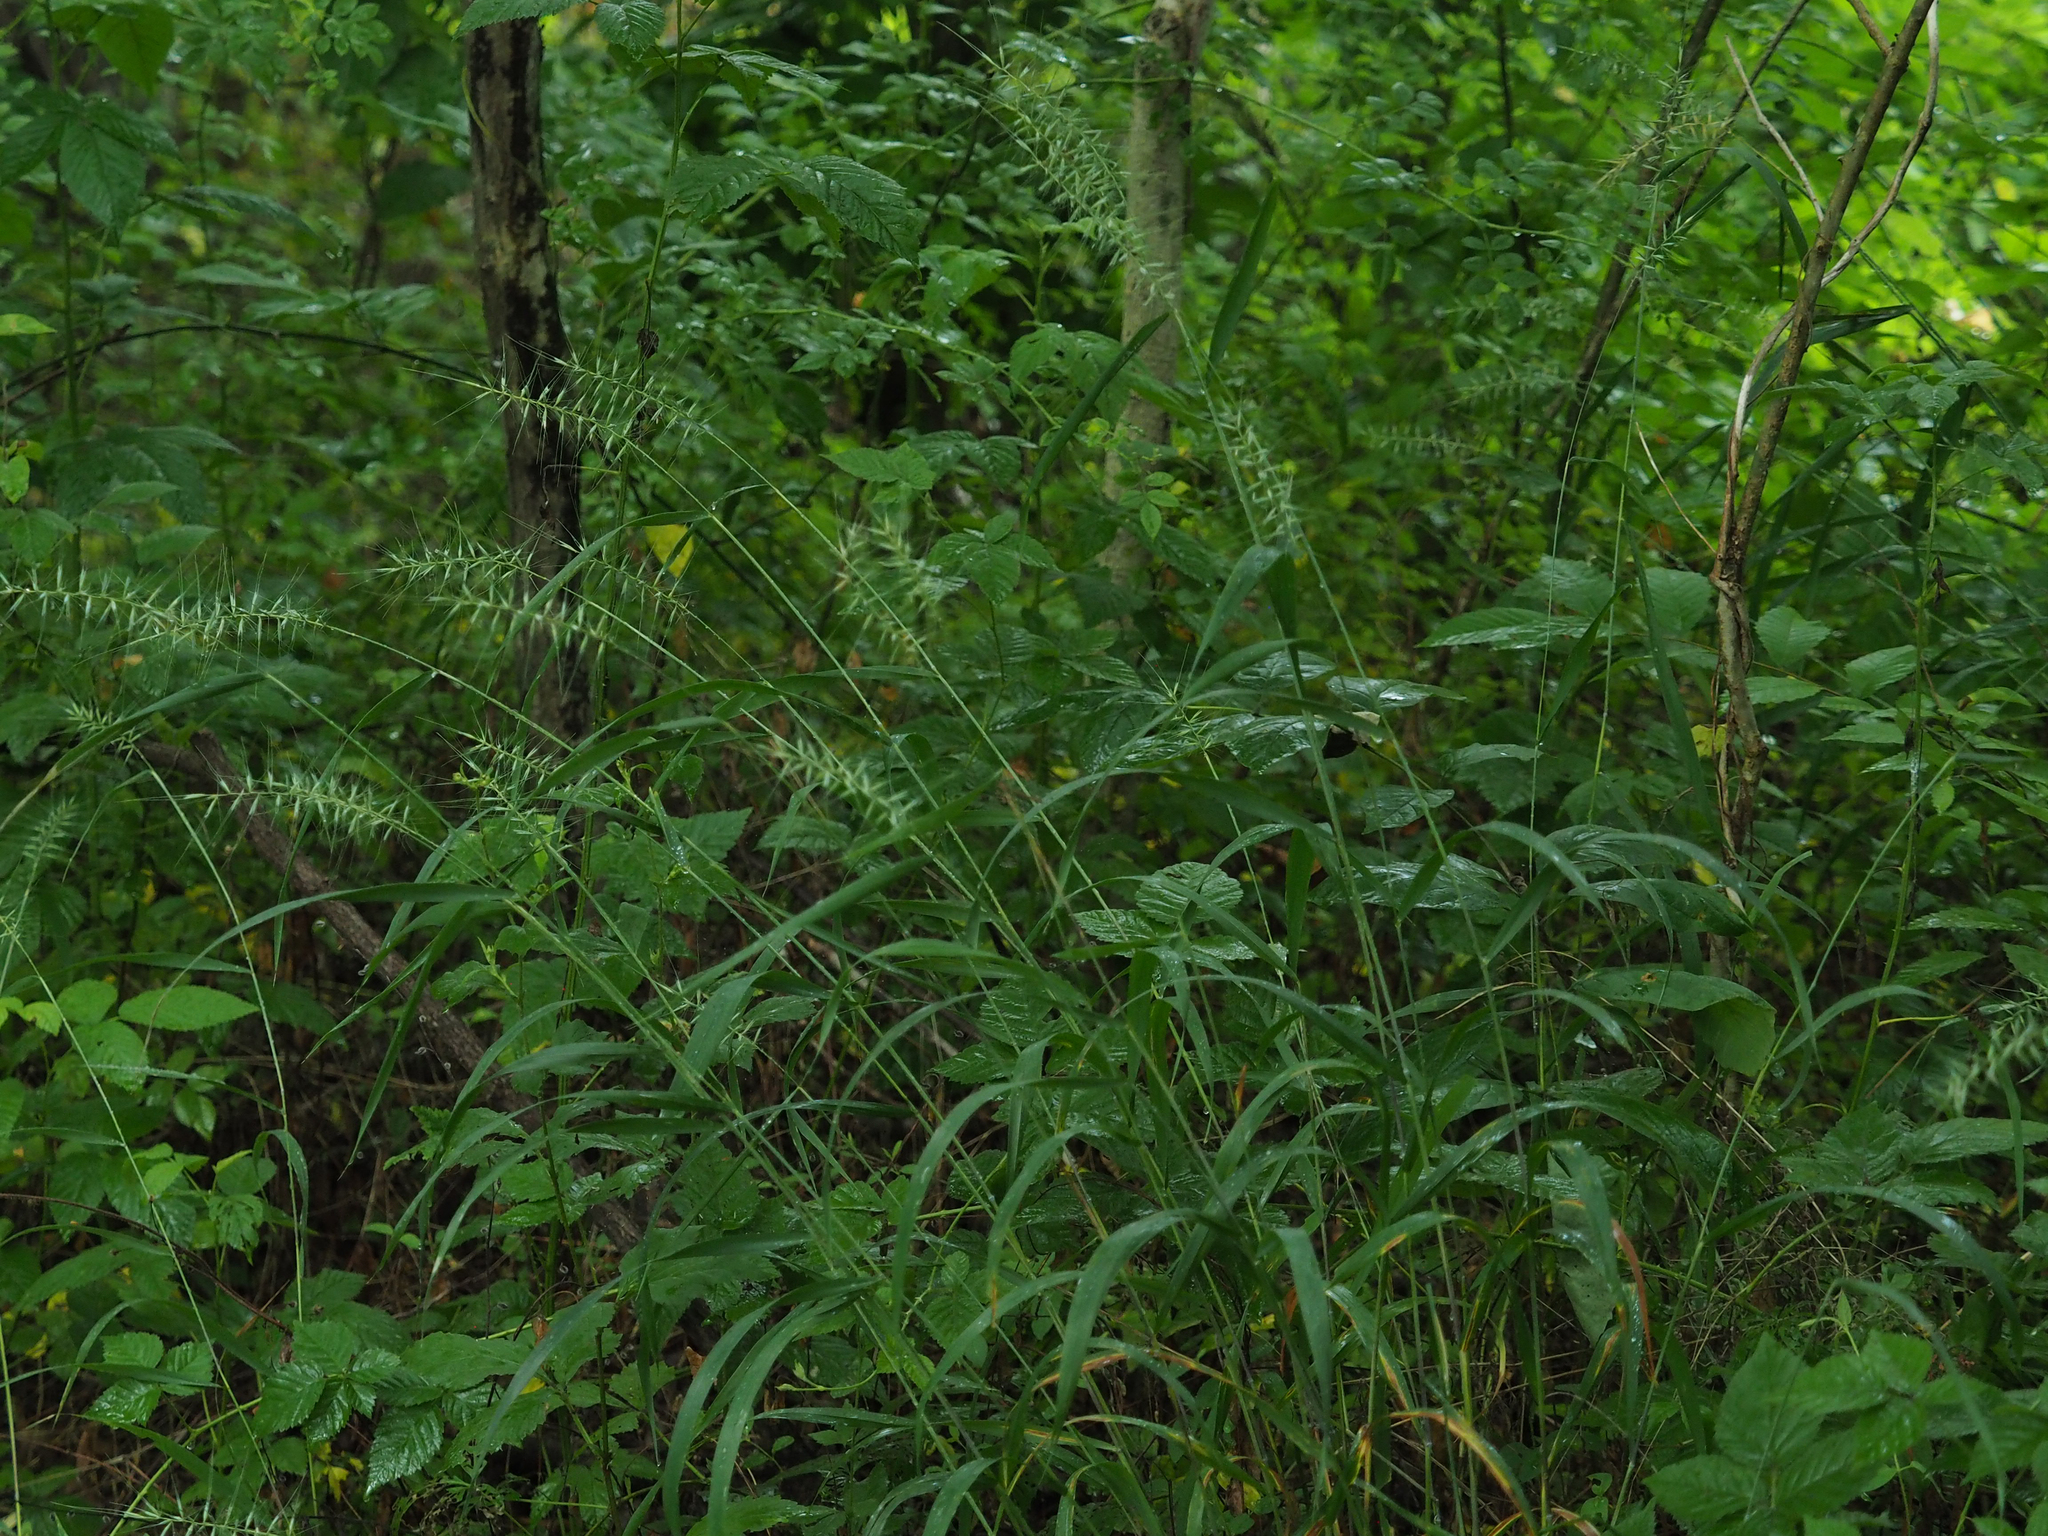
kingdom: Plantae
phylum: Tracheophyta
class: Liliopsida
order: Poales
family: Poaceae
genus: Elymus
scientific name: Elymus hystrix
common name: Bottlebrush grass
